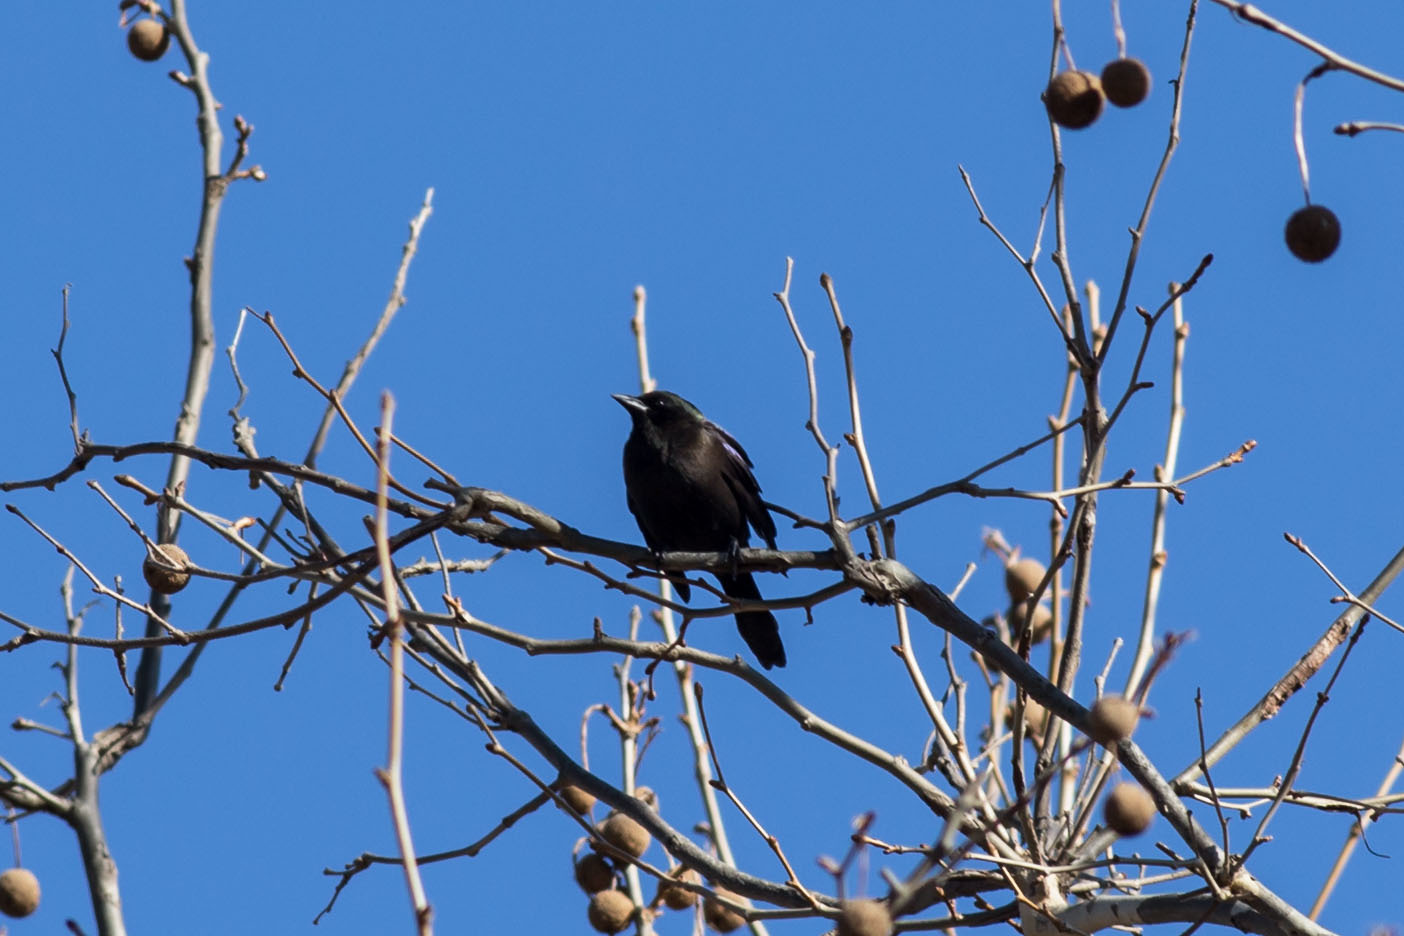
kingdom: Animalia
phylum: Chordata
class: Aves
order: Passeriformes
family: Icteridae
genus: Quiscalus
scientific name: Quiscalus quiscula
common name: Common grackle
